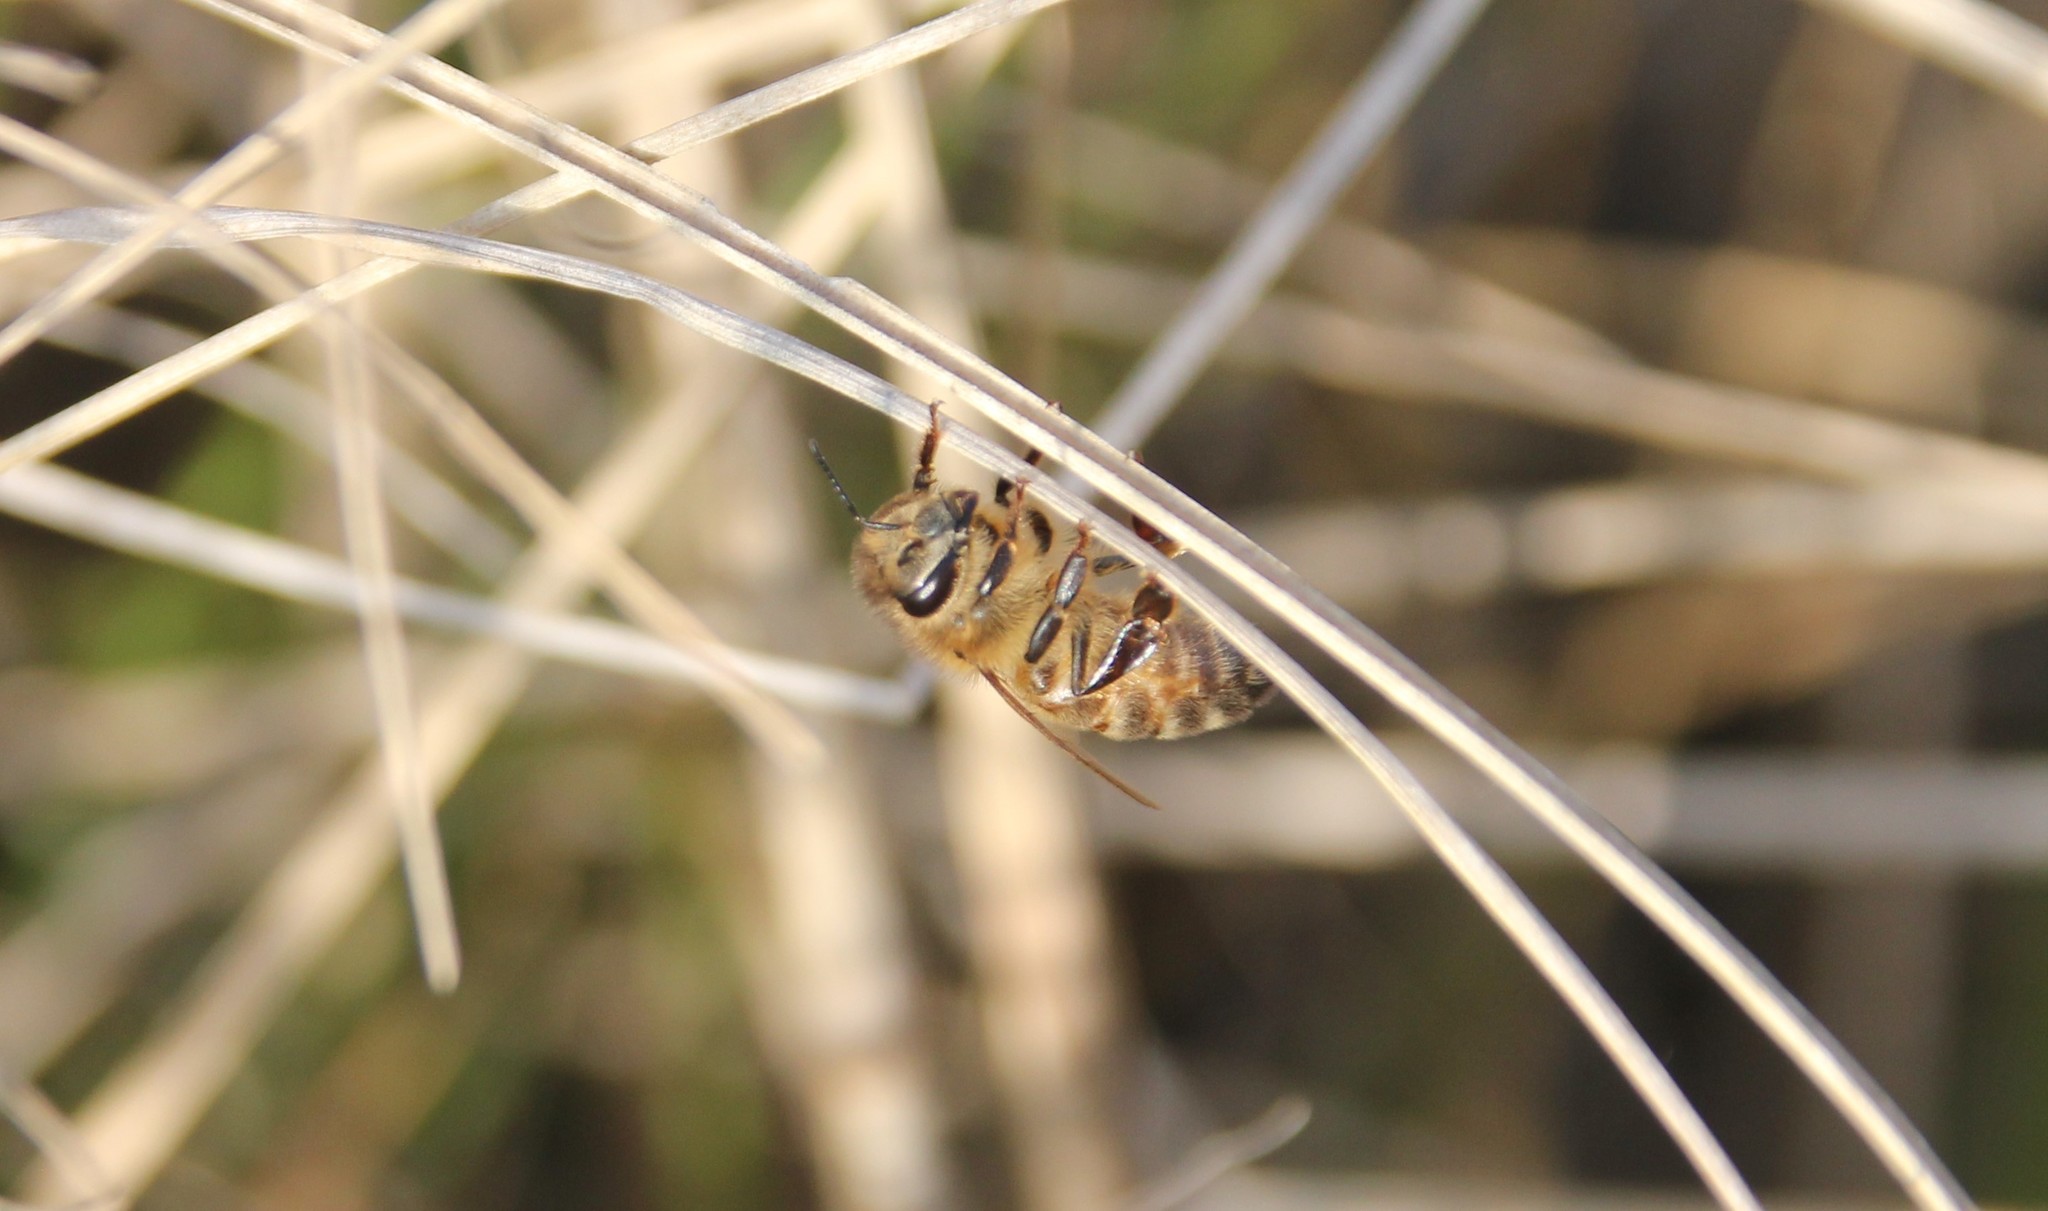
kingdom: Animalia
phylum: Arthropoda
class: Insecta
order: Hymenoptera
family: Apidae
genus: Apis
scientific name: Apis mellifera
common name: Honey bee
